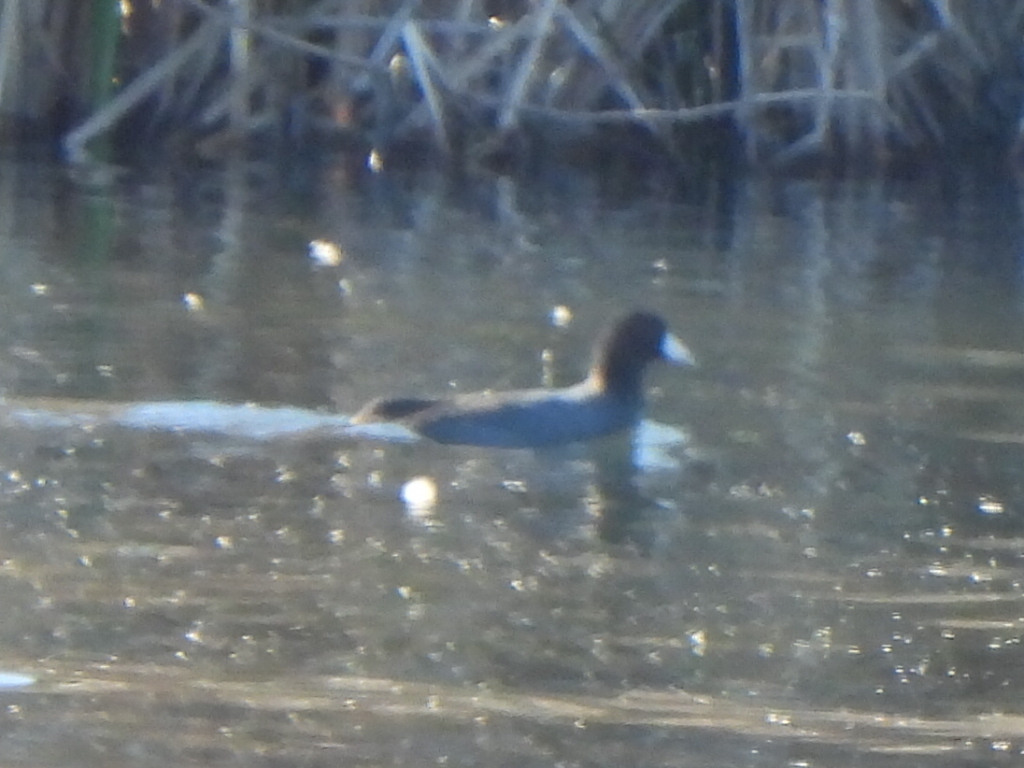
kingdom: Animalia
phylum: Chordata
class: Aves
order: Gruiformes
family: Rallidae
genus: Fulica
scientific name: Fulica americana
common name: American coot
